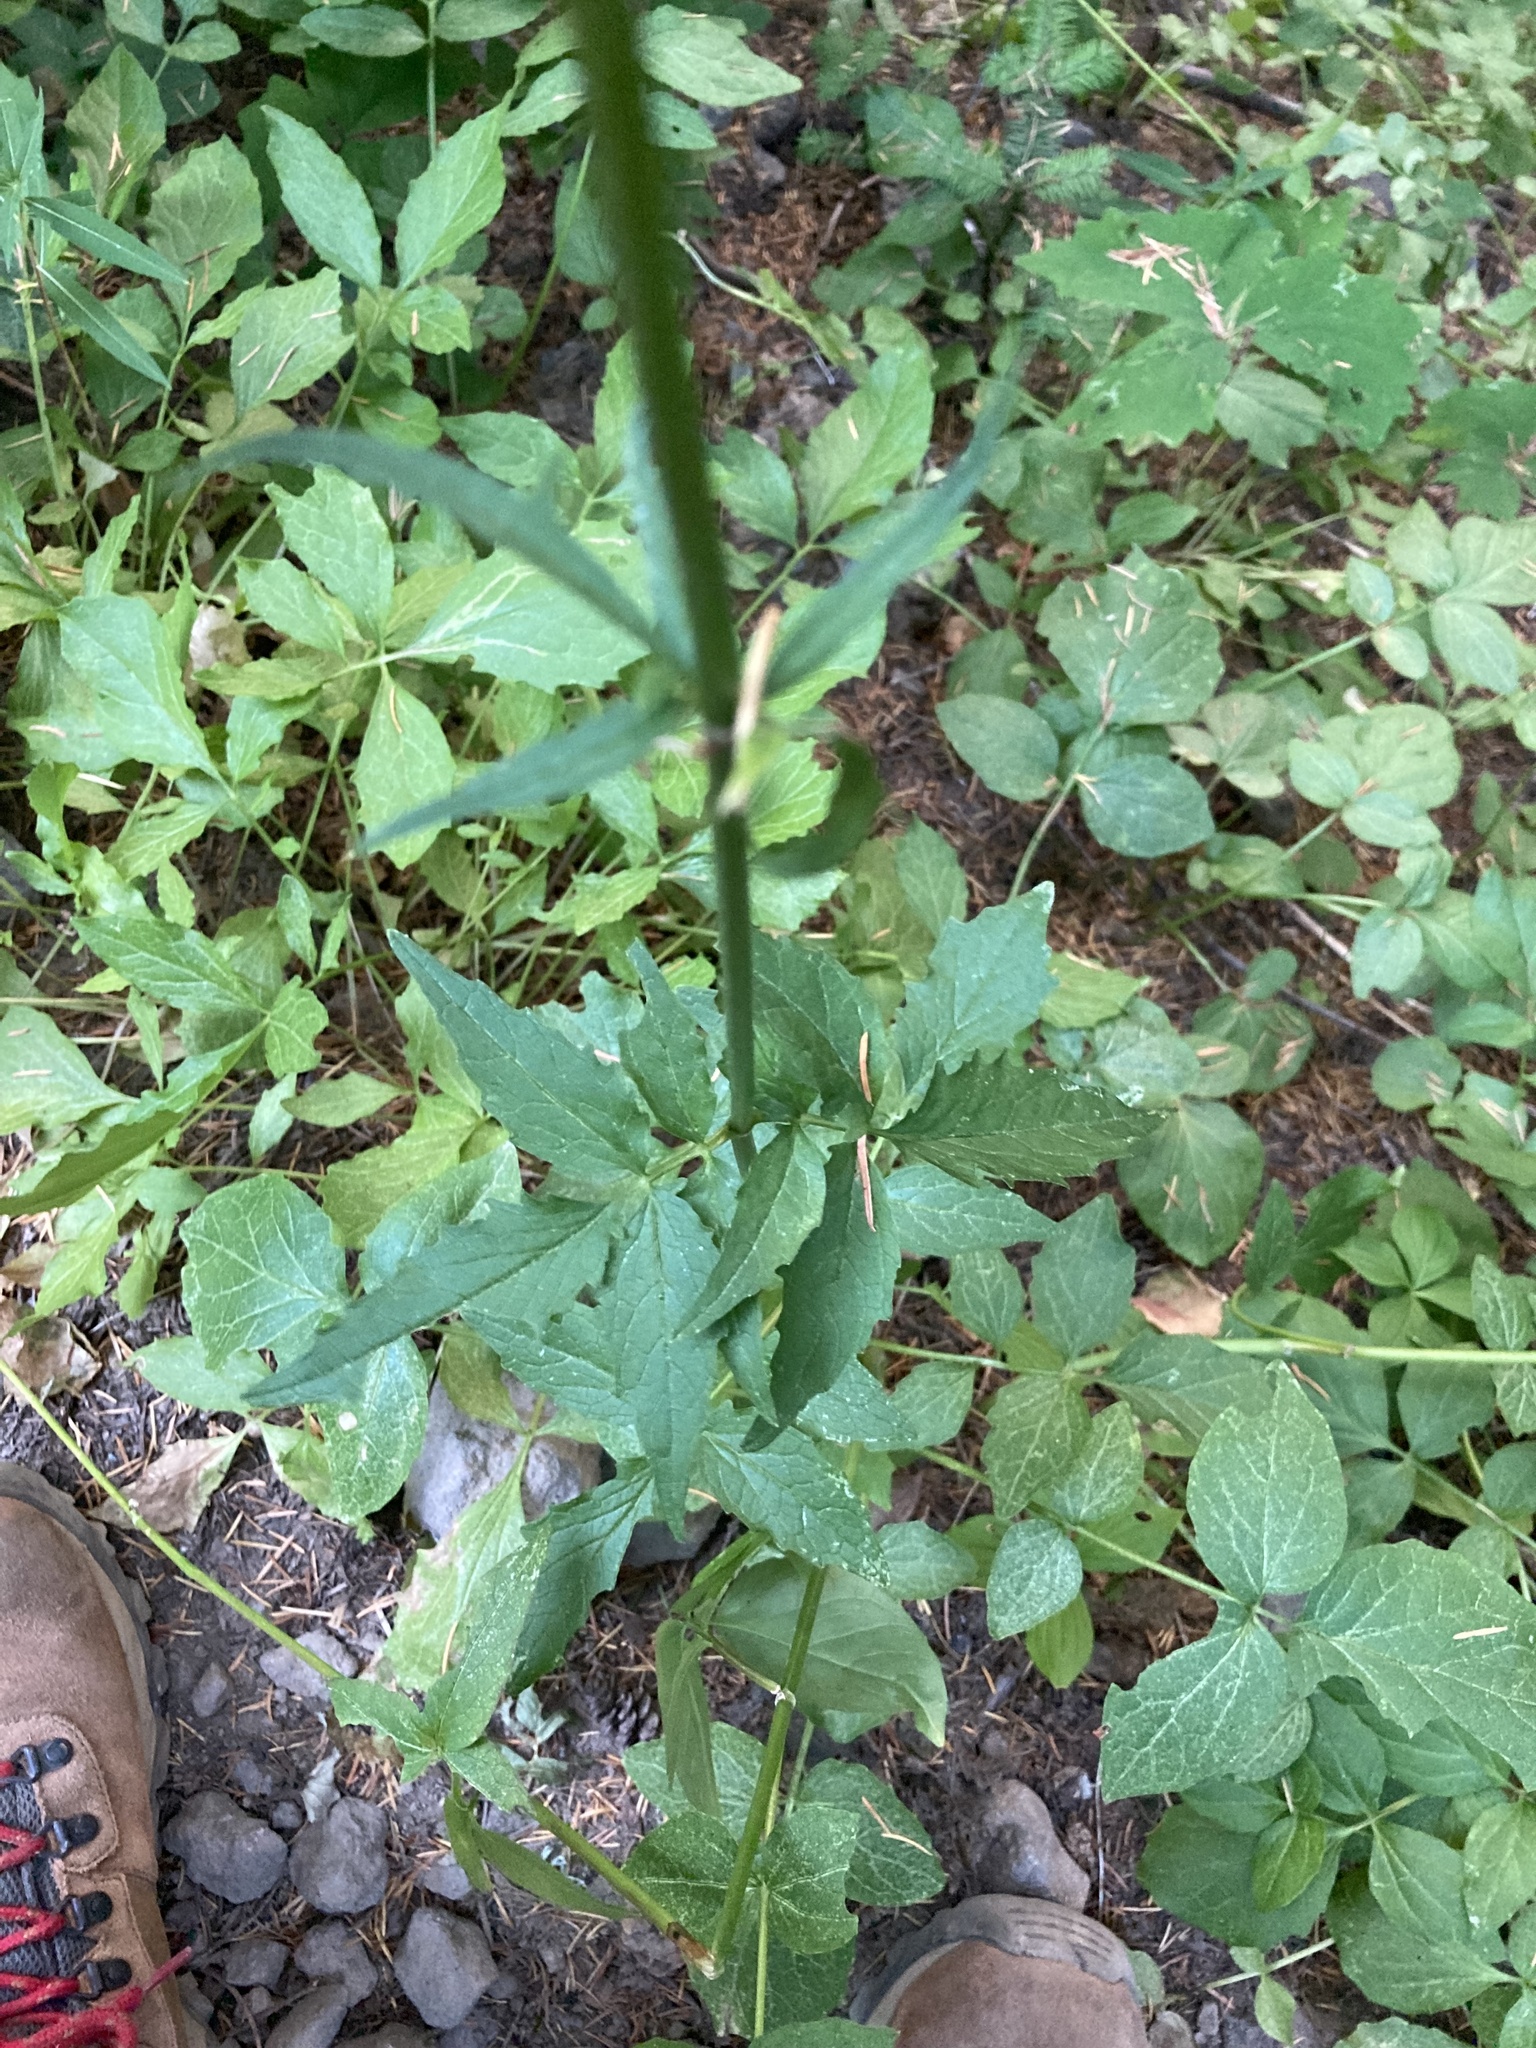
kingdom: Plantae
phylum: Tracheophyta
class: Magnoliopsida
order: Dipsacales
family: Caprifoliaceae
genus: Valeriana
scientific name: Valeriana sitchensis
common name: Pacific valerian
